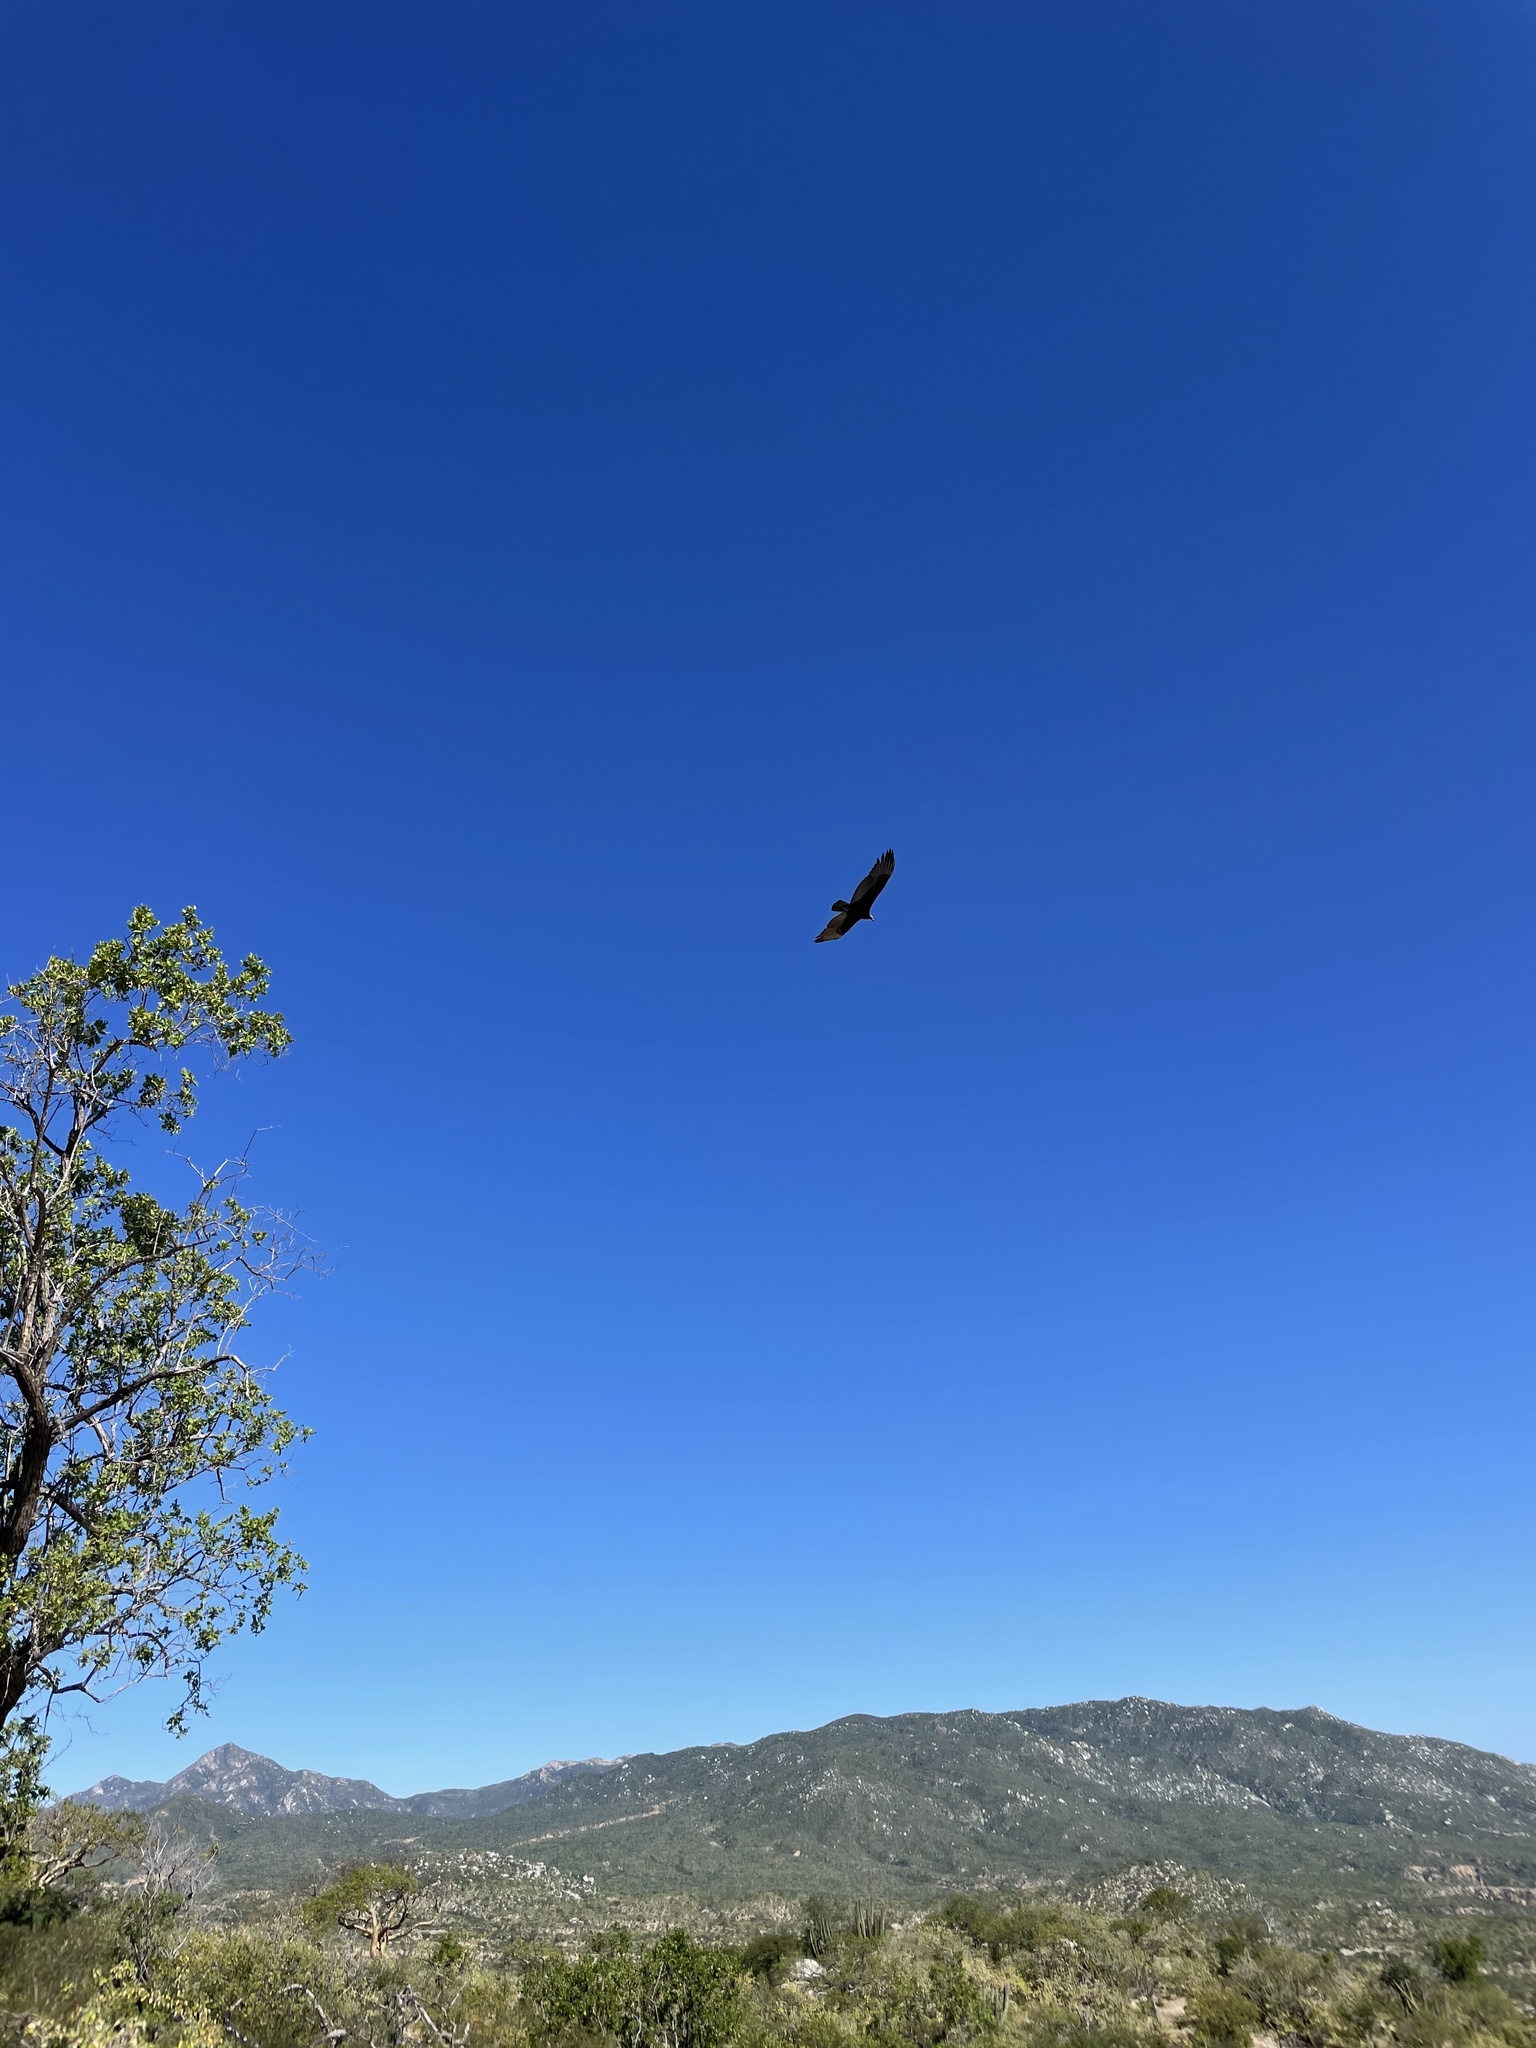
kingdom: Animalia
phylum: Chordata
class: Aves
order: Accipitriformes
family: Cathartidae
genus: Cathartes
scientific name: Cathartes aura
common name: Turkey vulture
